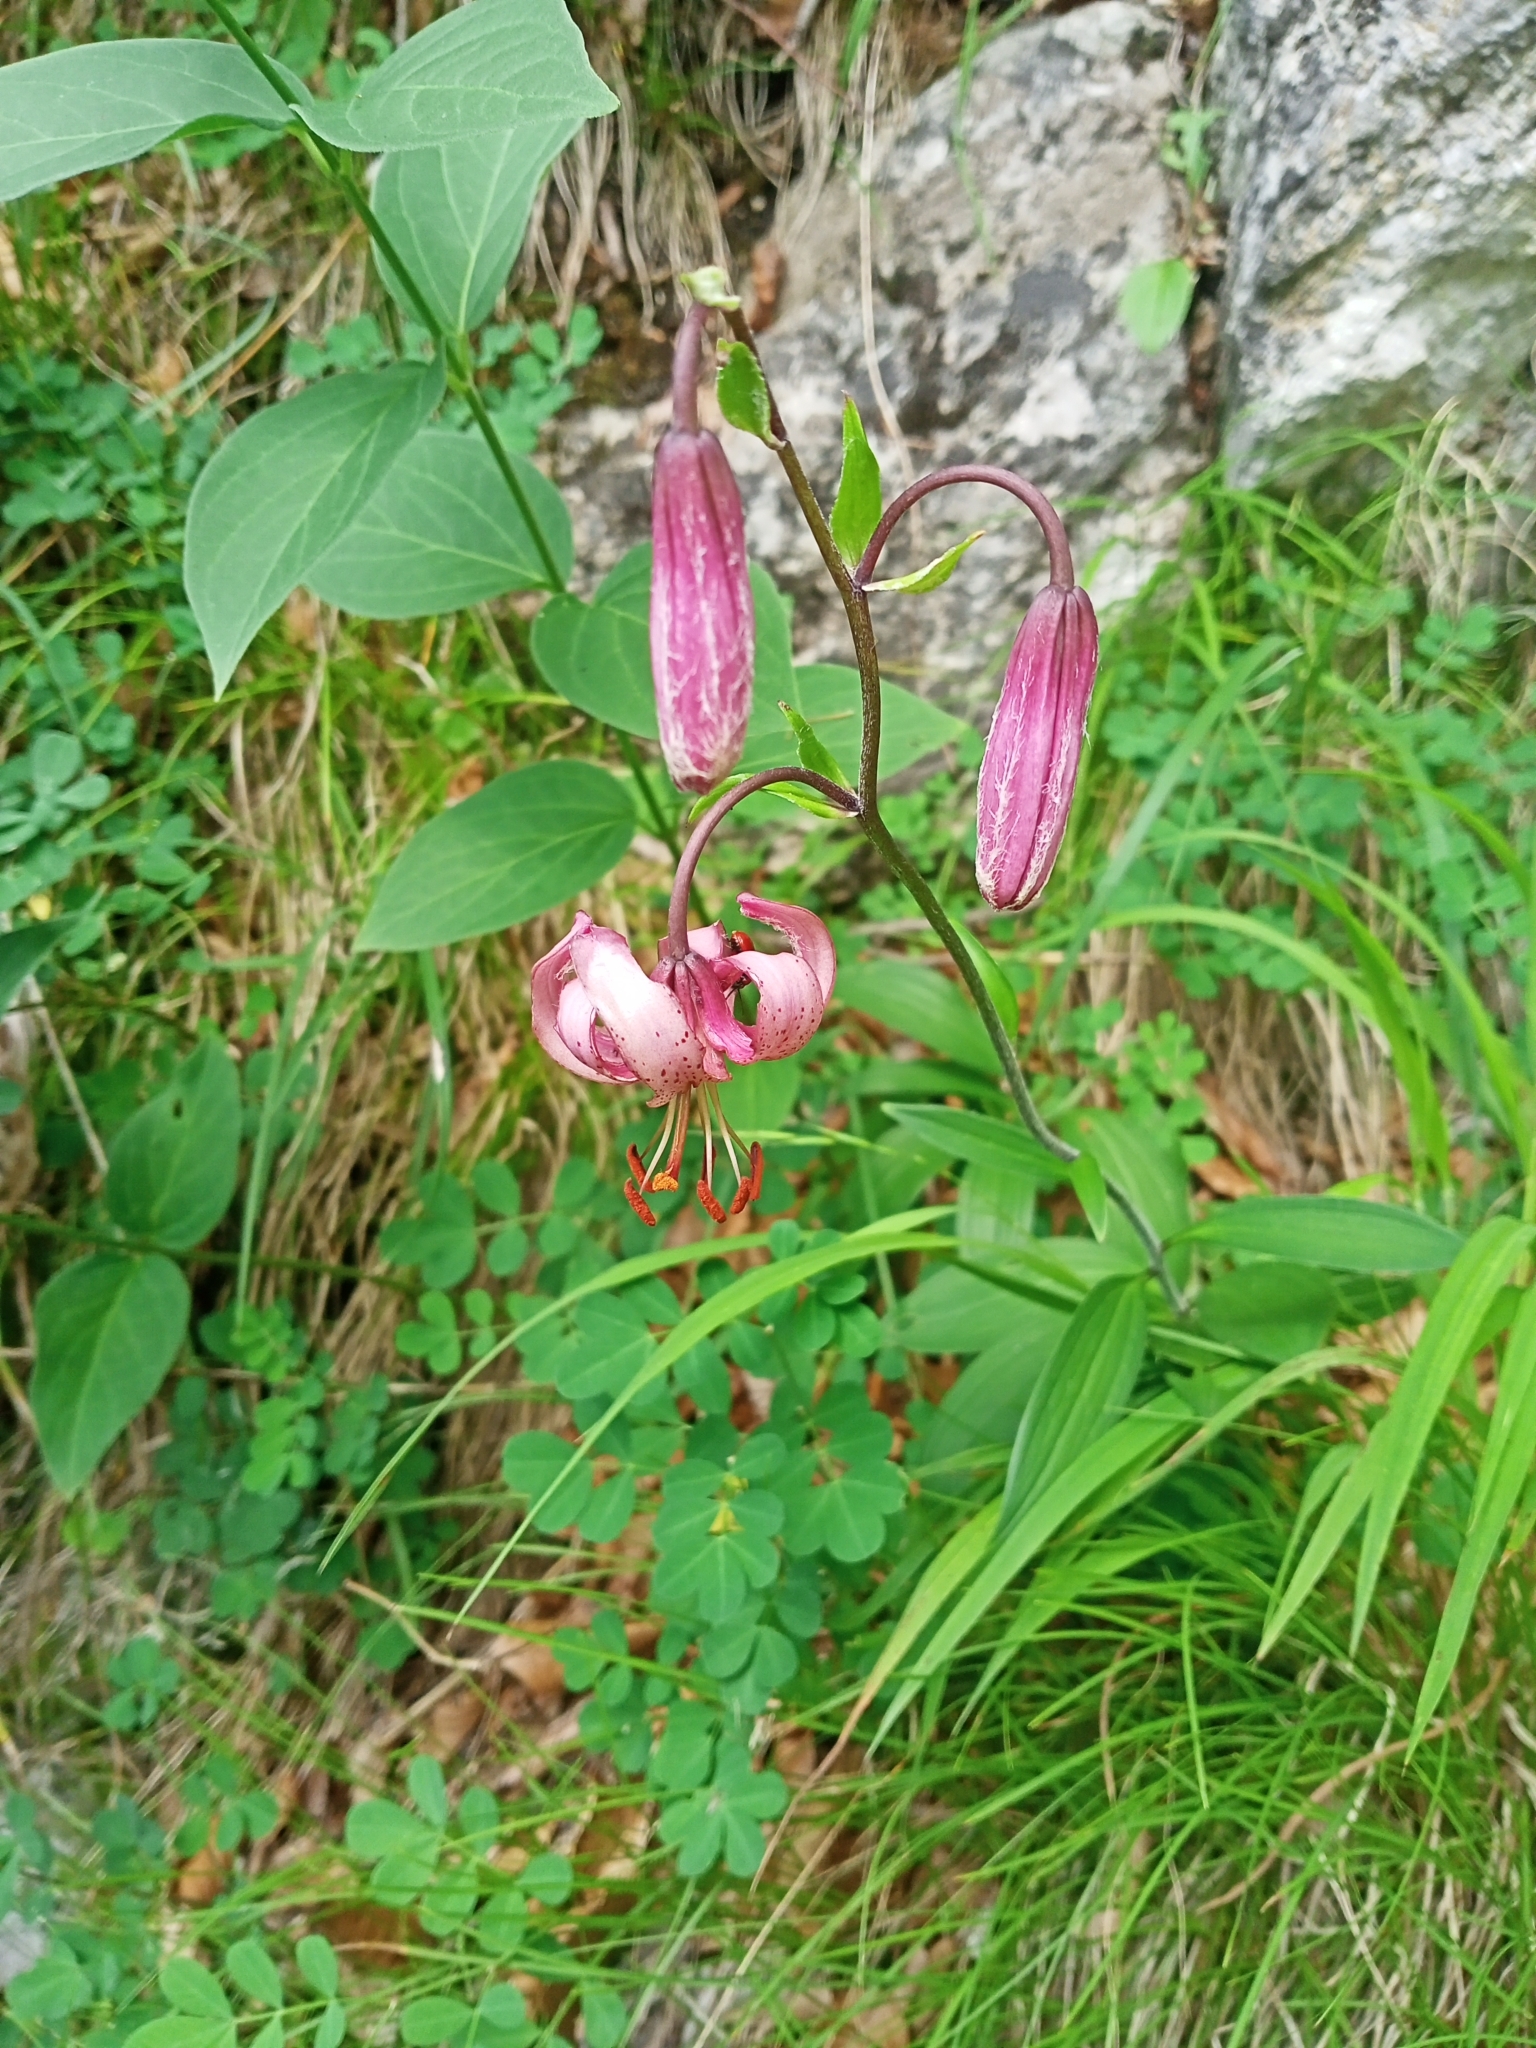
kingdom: Plantae
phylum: Tracheophyta
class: Liliopsida
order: Liliales
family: Liliaceae
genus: Lilium
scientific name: Lilium martagon
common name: Martagon lily
